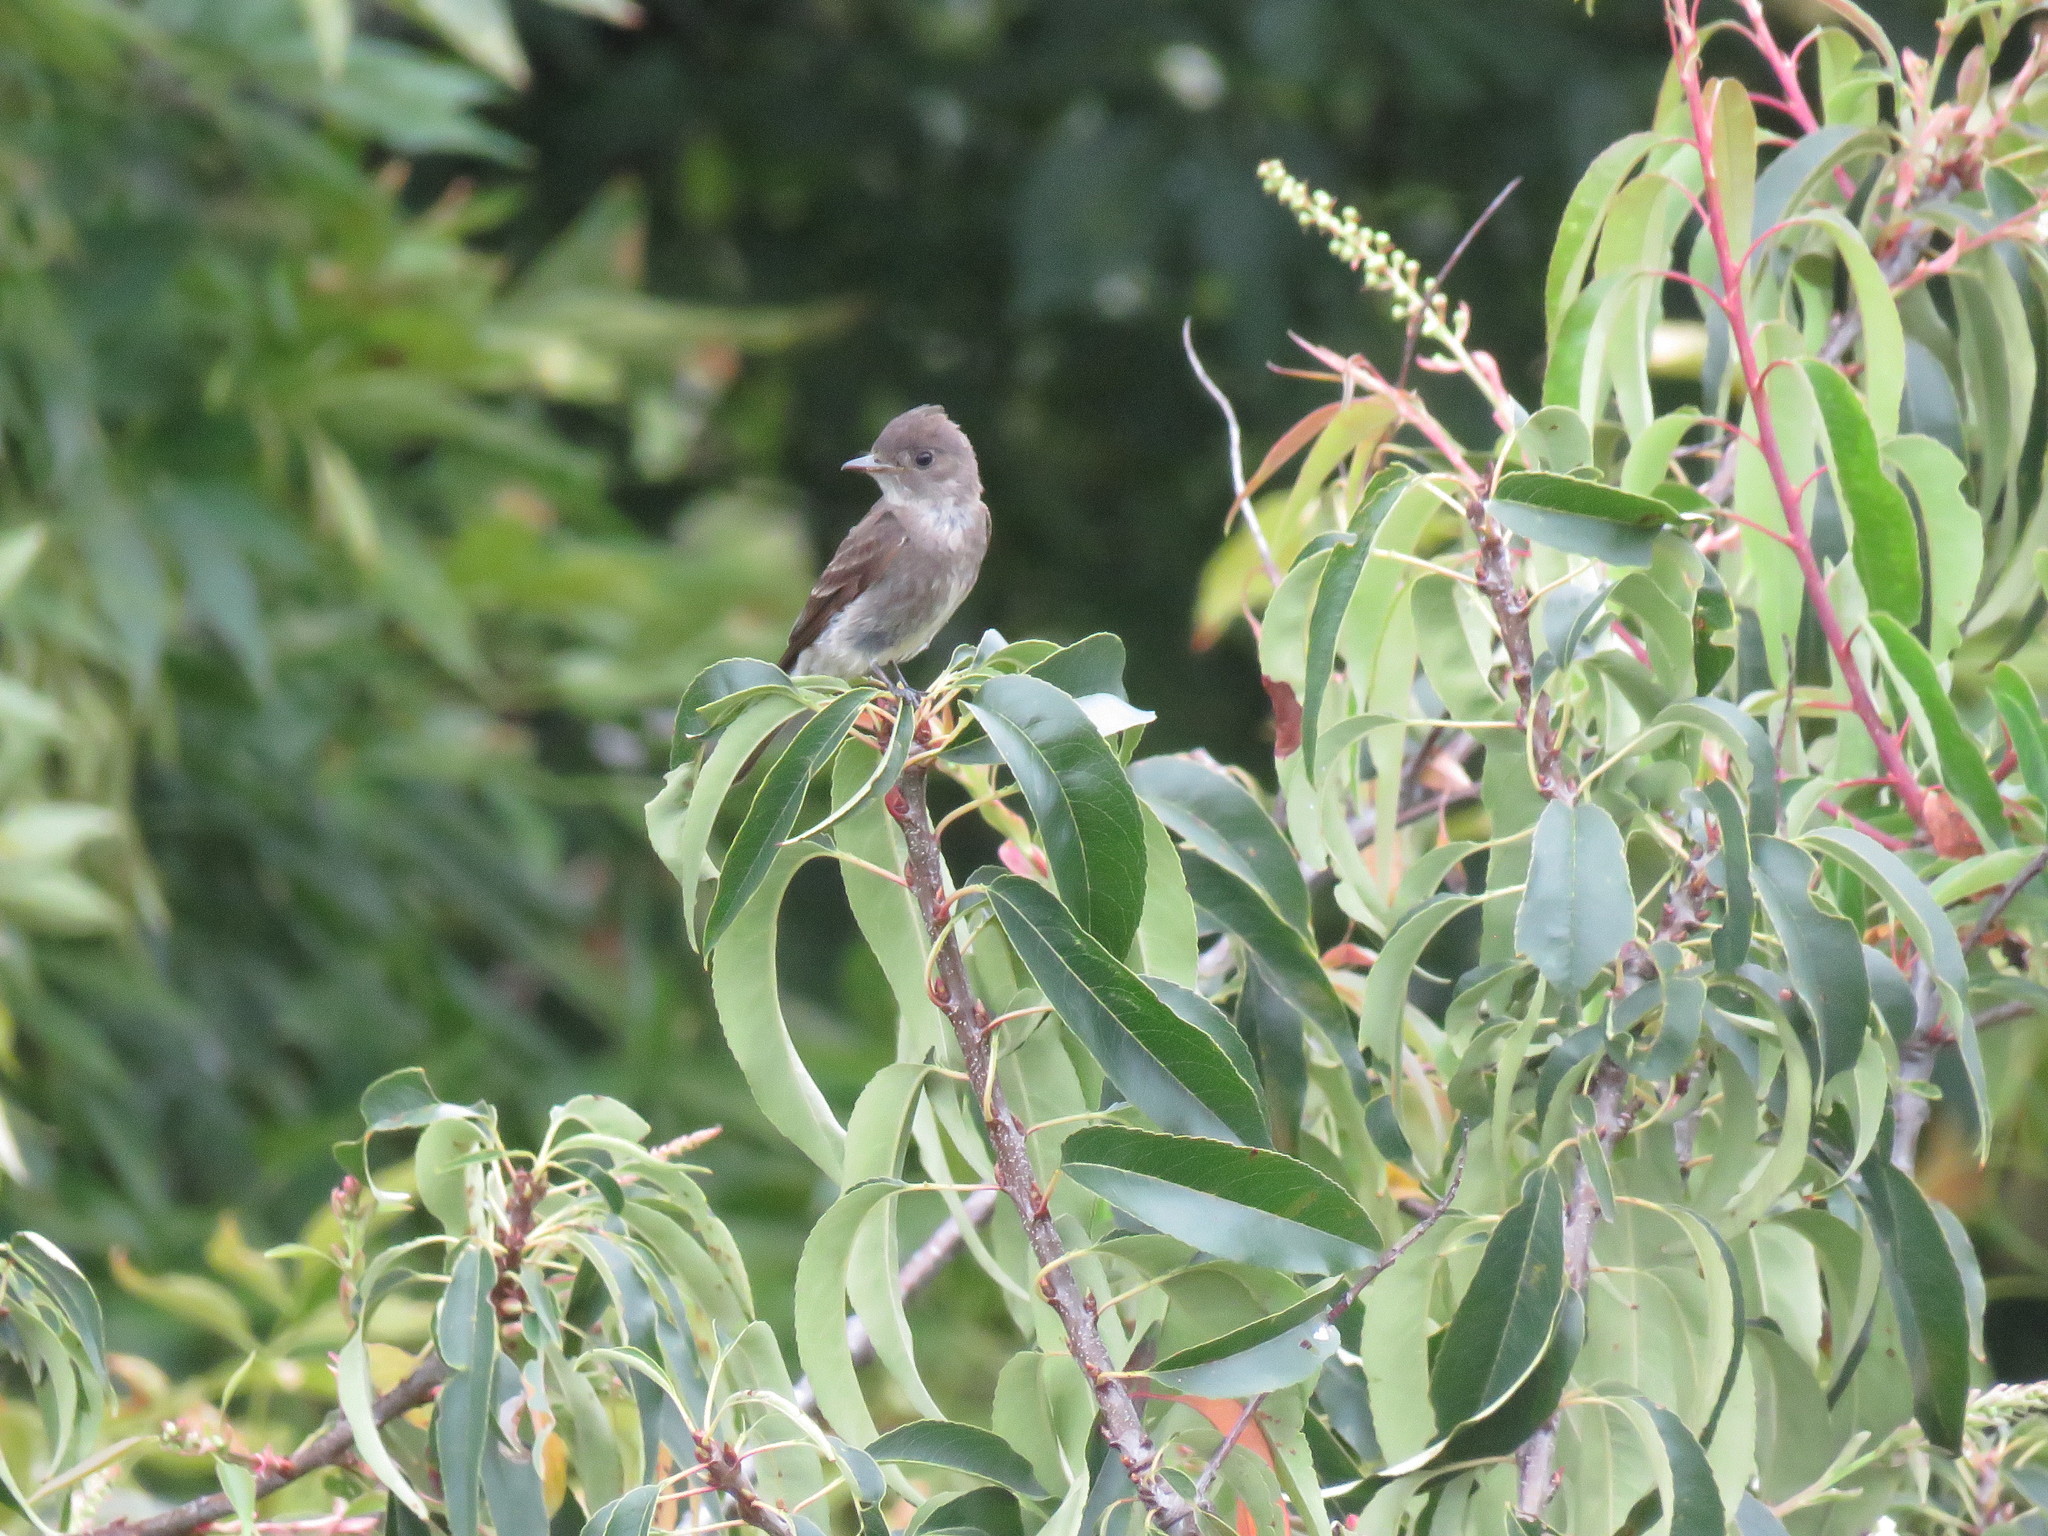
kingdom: Animalia
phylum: Chordata
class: Aves
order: Passeriformes
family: Tyrannidae
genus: Contopus
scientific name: Contopus sordidulus
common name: Western wood-pewee
